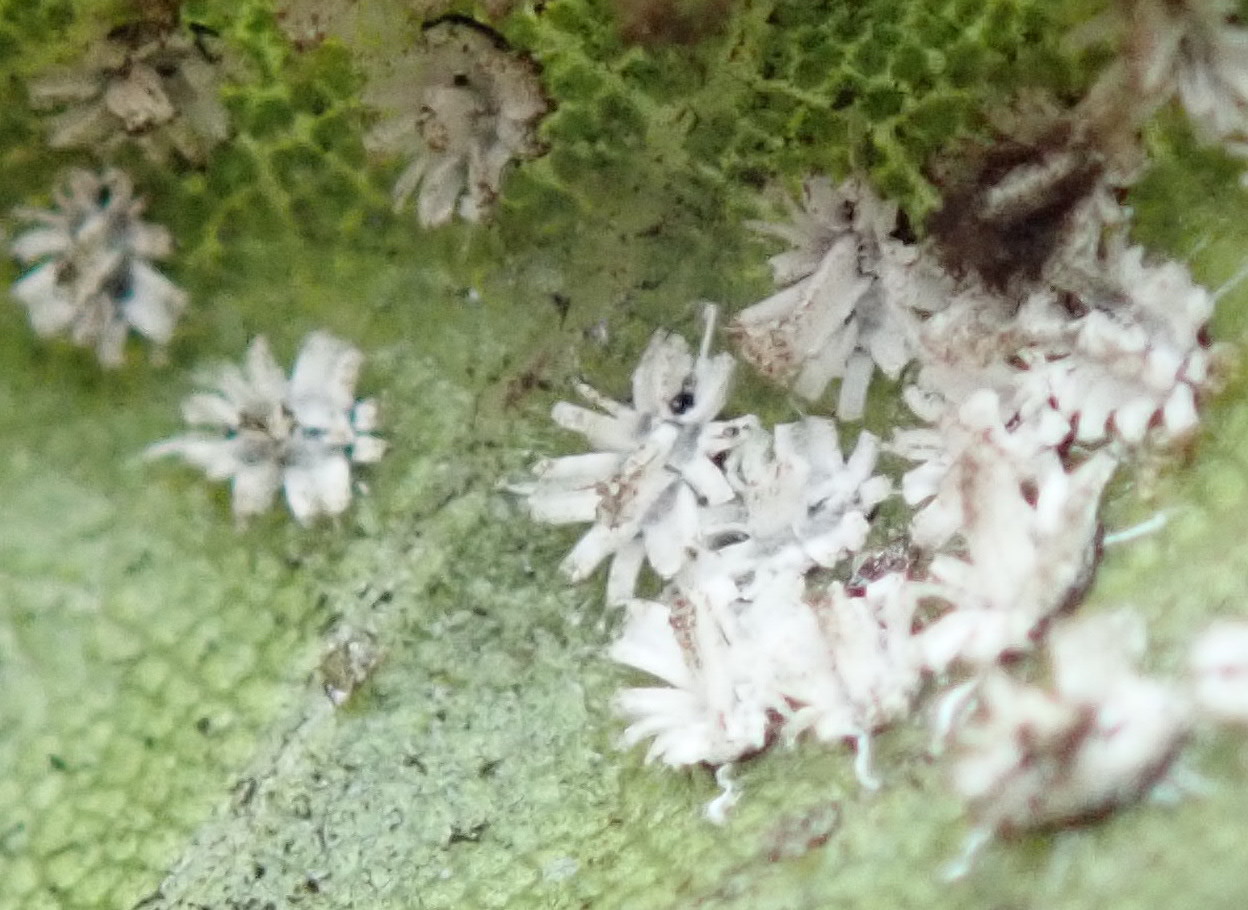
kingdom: Animalia
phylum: Arthropoda
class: Insecta
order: Hemiptera
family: Aleyrodidae
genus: Aleuroplatus
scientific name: Aleuroplatus coronata
